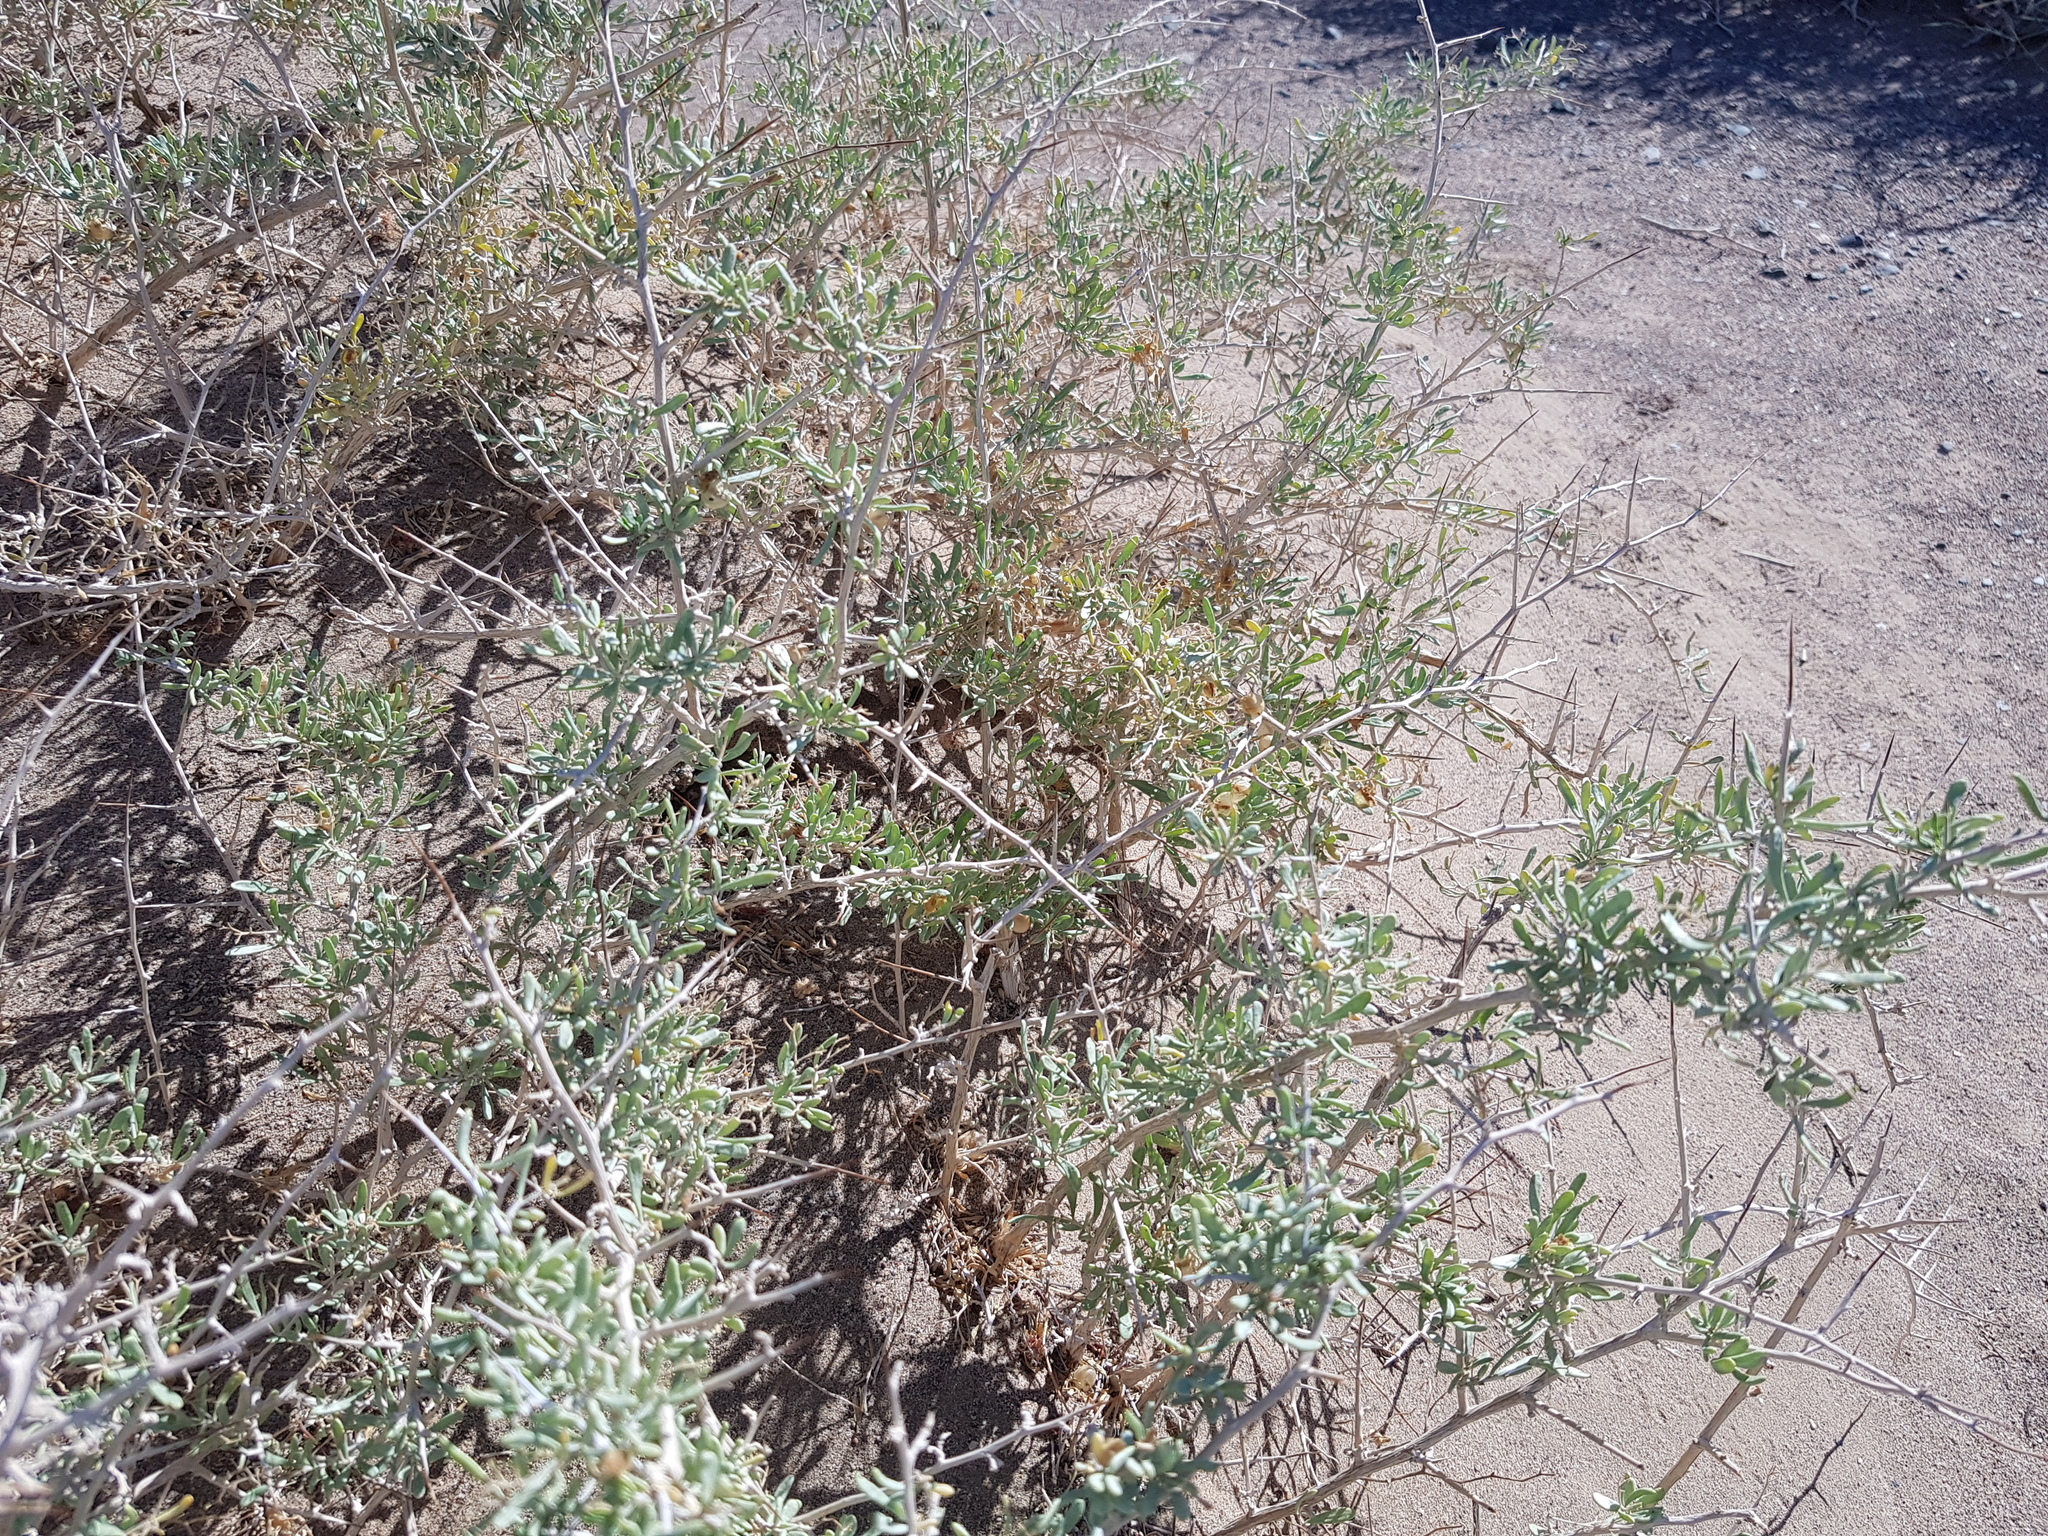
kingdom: Plantae
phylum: Tracheophyta
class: Magnoliopsida
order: Sapindales
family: Nitrariaceae
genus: Nitraria
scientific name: Nitraria sphaerocarpa
